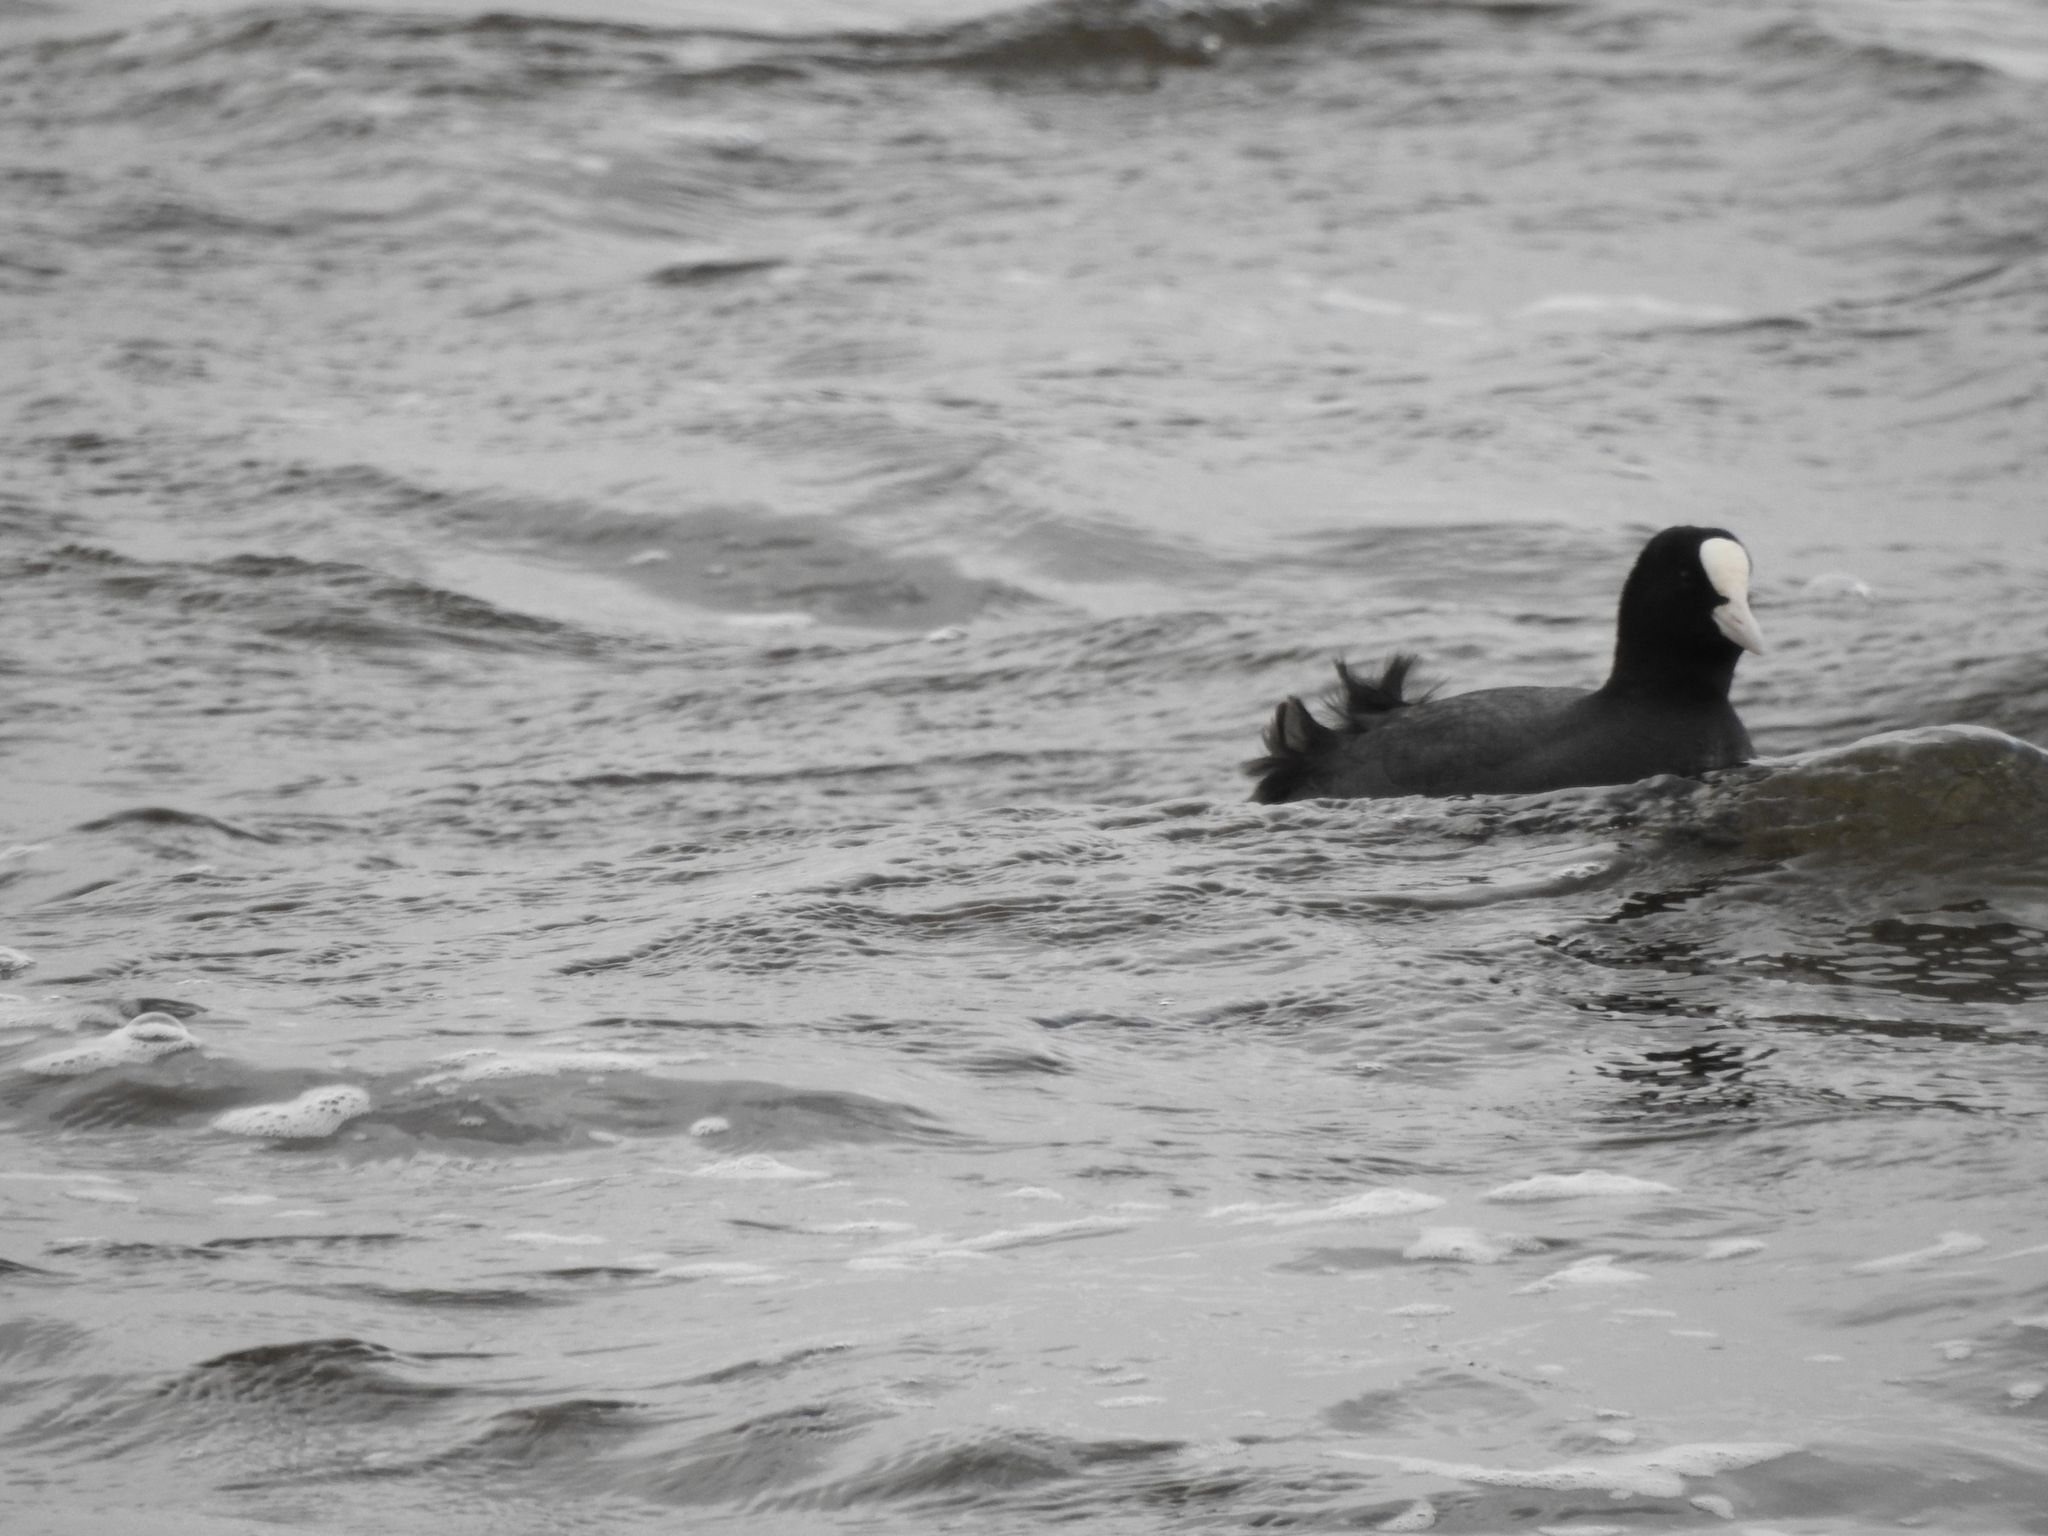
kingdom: Animalia
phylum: Chordata
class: Aves
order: Gruiformes
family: Rallidae
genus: Fulica
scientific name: Fulica atra
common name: Eurasian coot
